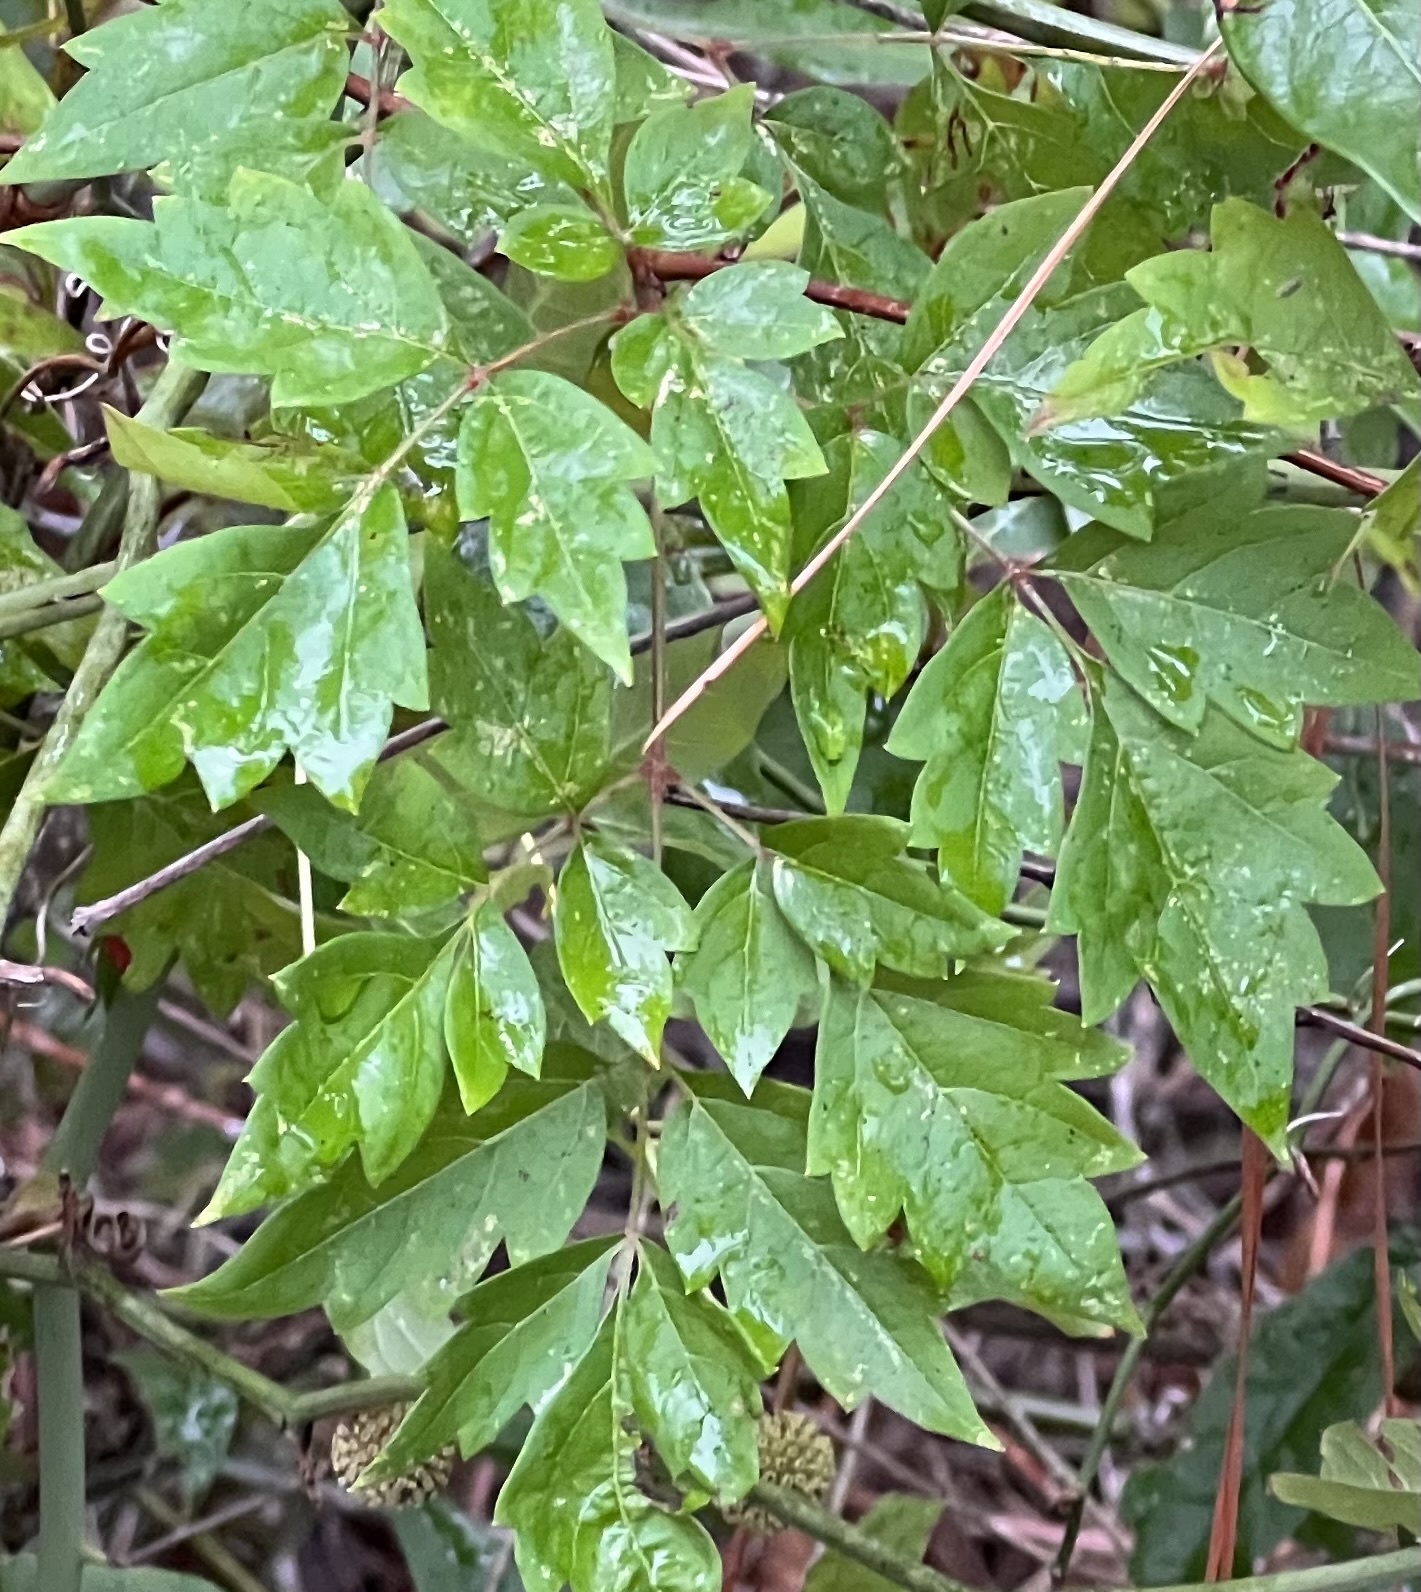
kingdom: Plantae
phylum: Tracheophyta
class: Magnoliopsida
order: Vitales
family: Vitaceae
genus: Nekemias
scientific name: Nekemias arborea
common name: Peppervine
